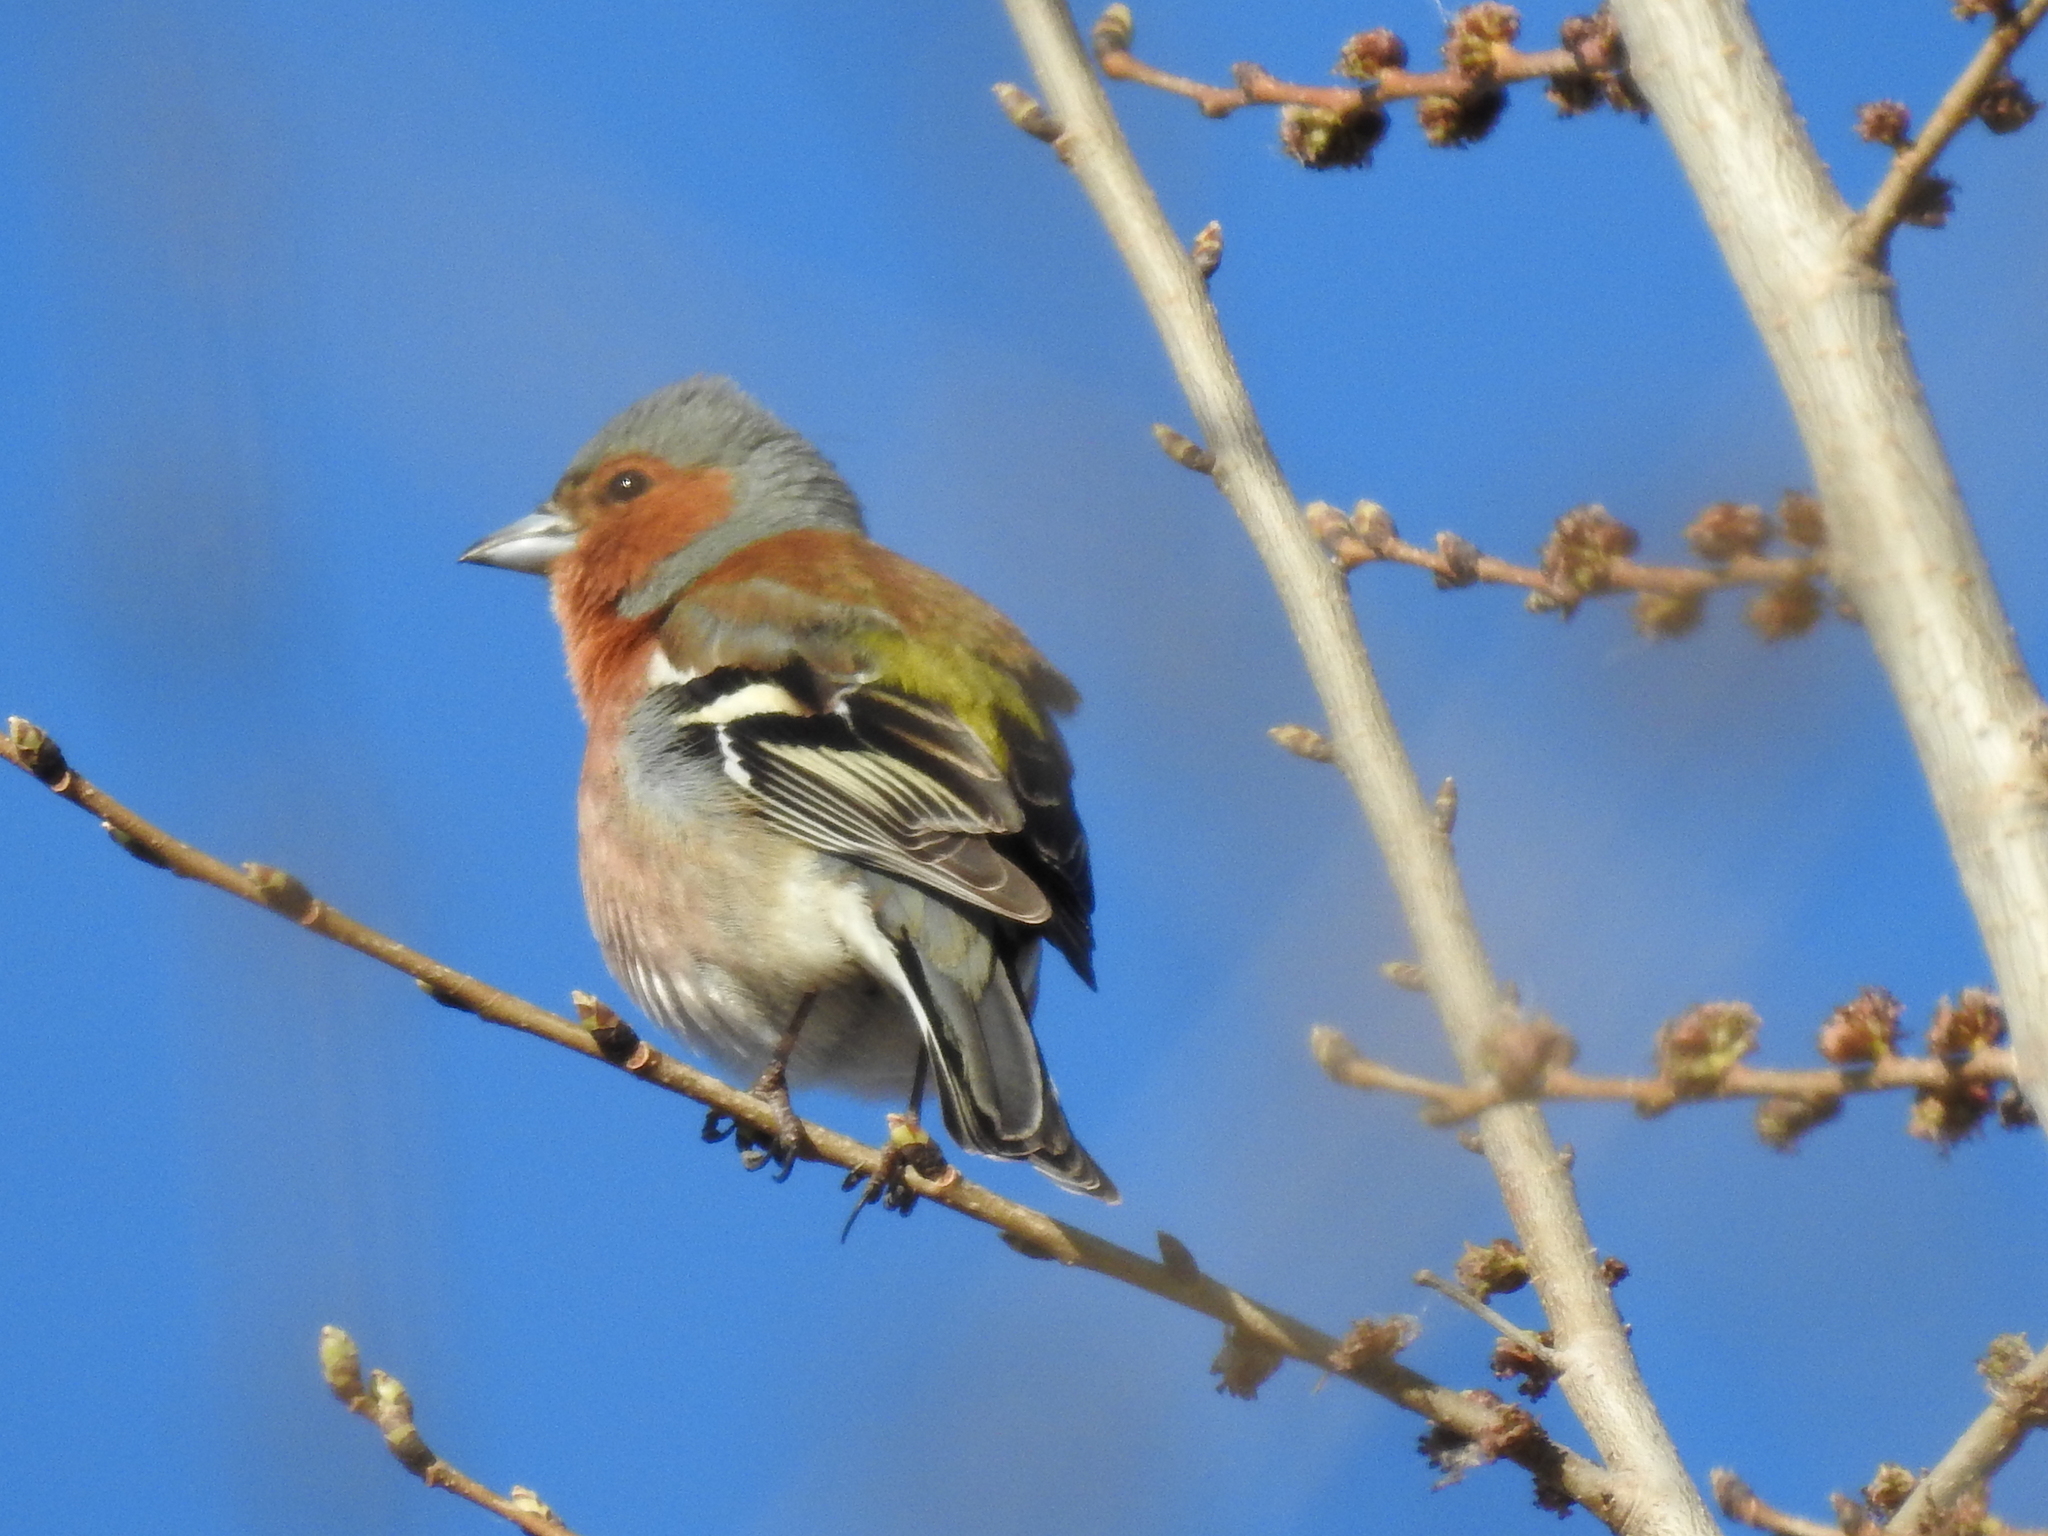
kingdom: Animalia
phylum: Chordata
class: Aves
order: Passeriformes
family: Fringillidae
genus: Fringilla
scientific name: Fringilla coelebs
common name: Common chaffinch
